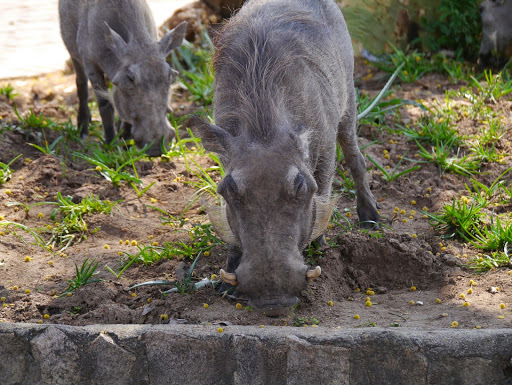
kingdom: Animalia
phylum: Chordata
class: Mammalia
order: Artiodactyla
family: Suidae
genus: Phacochoerus
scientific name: Phacochoerus africanus
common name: Common warthog
